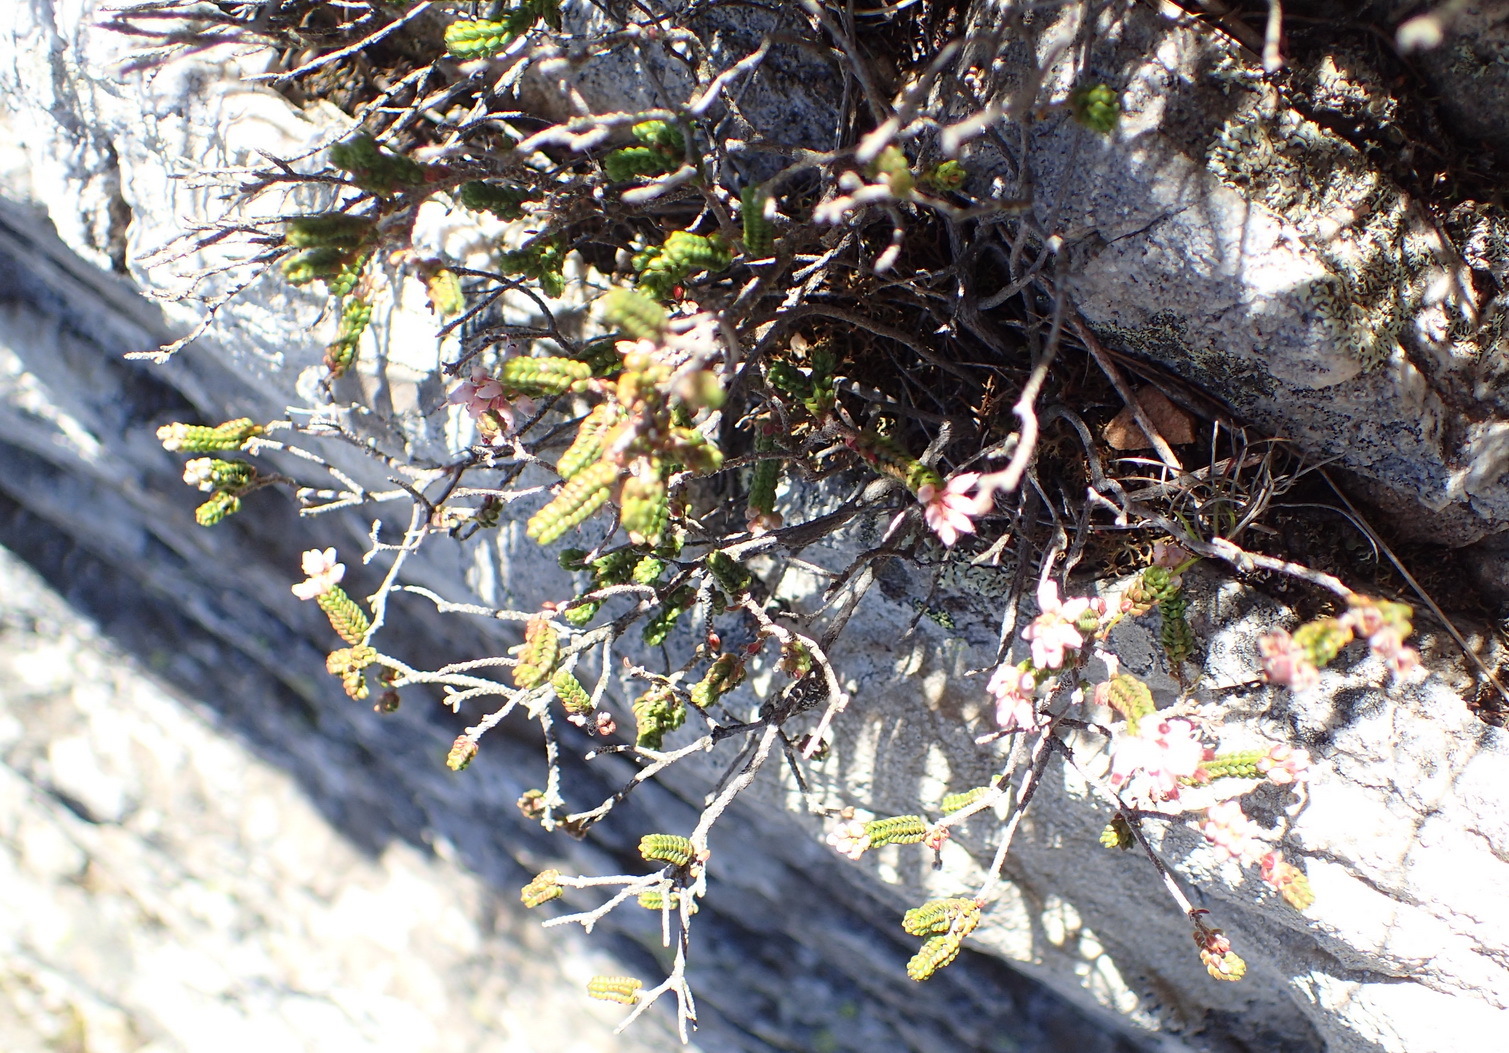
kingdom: Plantae
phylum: Tracheophyta
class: Magnoliopsida
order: Ericales
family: Ericaceae
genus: Erica
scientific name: Erica petraea
